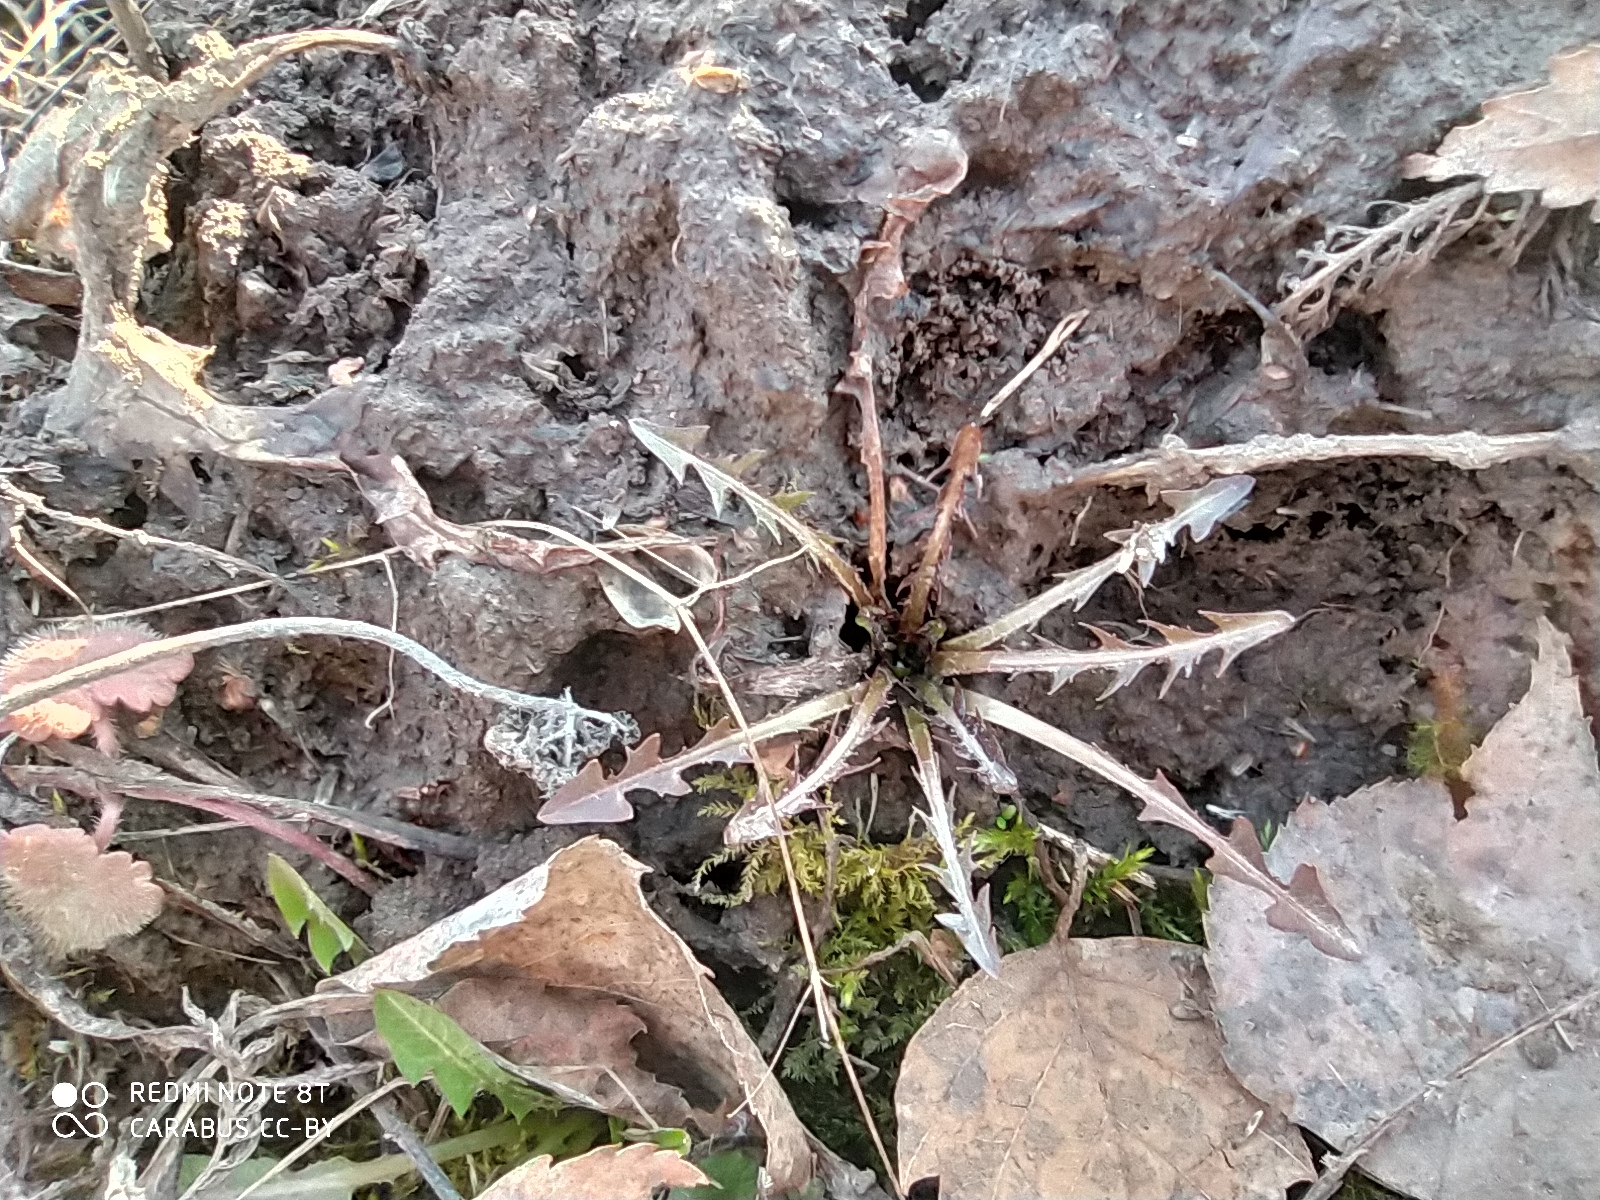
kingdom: Plantae
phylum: Tracheophyta
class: Magnoliopsida
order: Asterales
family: Asteraceae
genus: Taraxacum
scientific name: Taraxacum officinale
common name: Common dandelion
